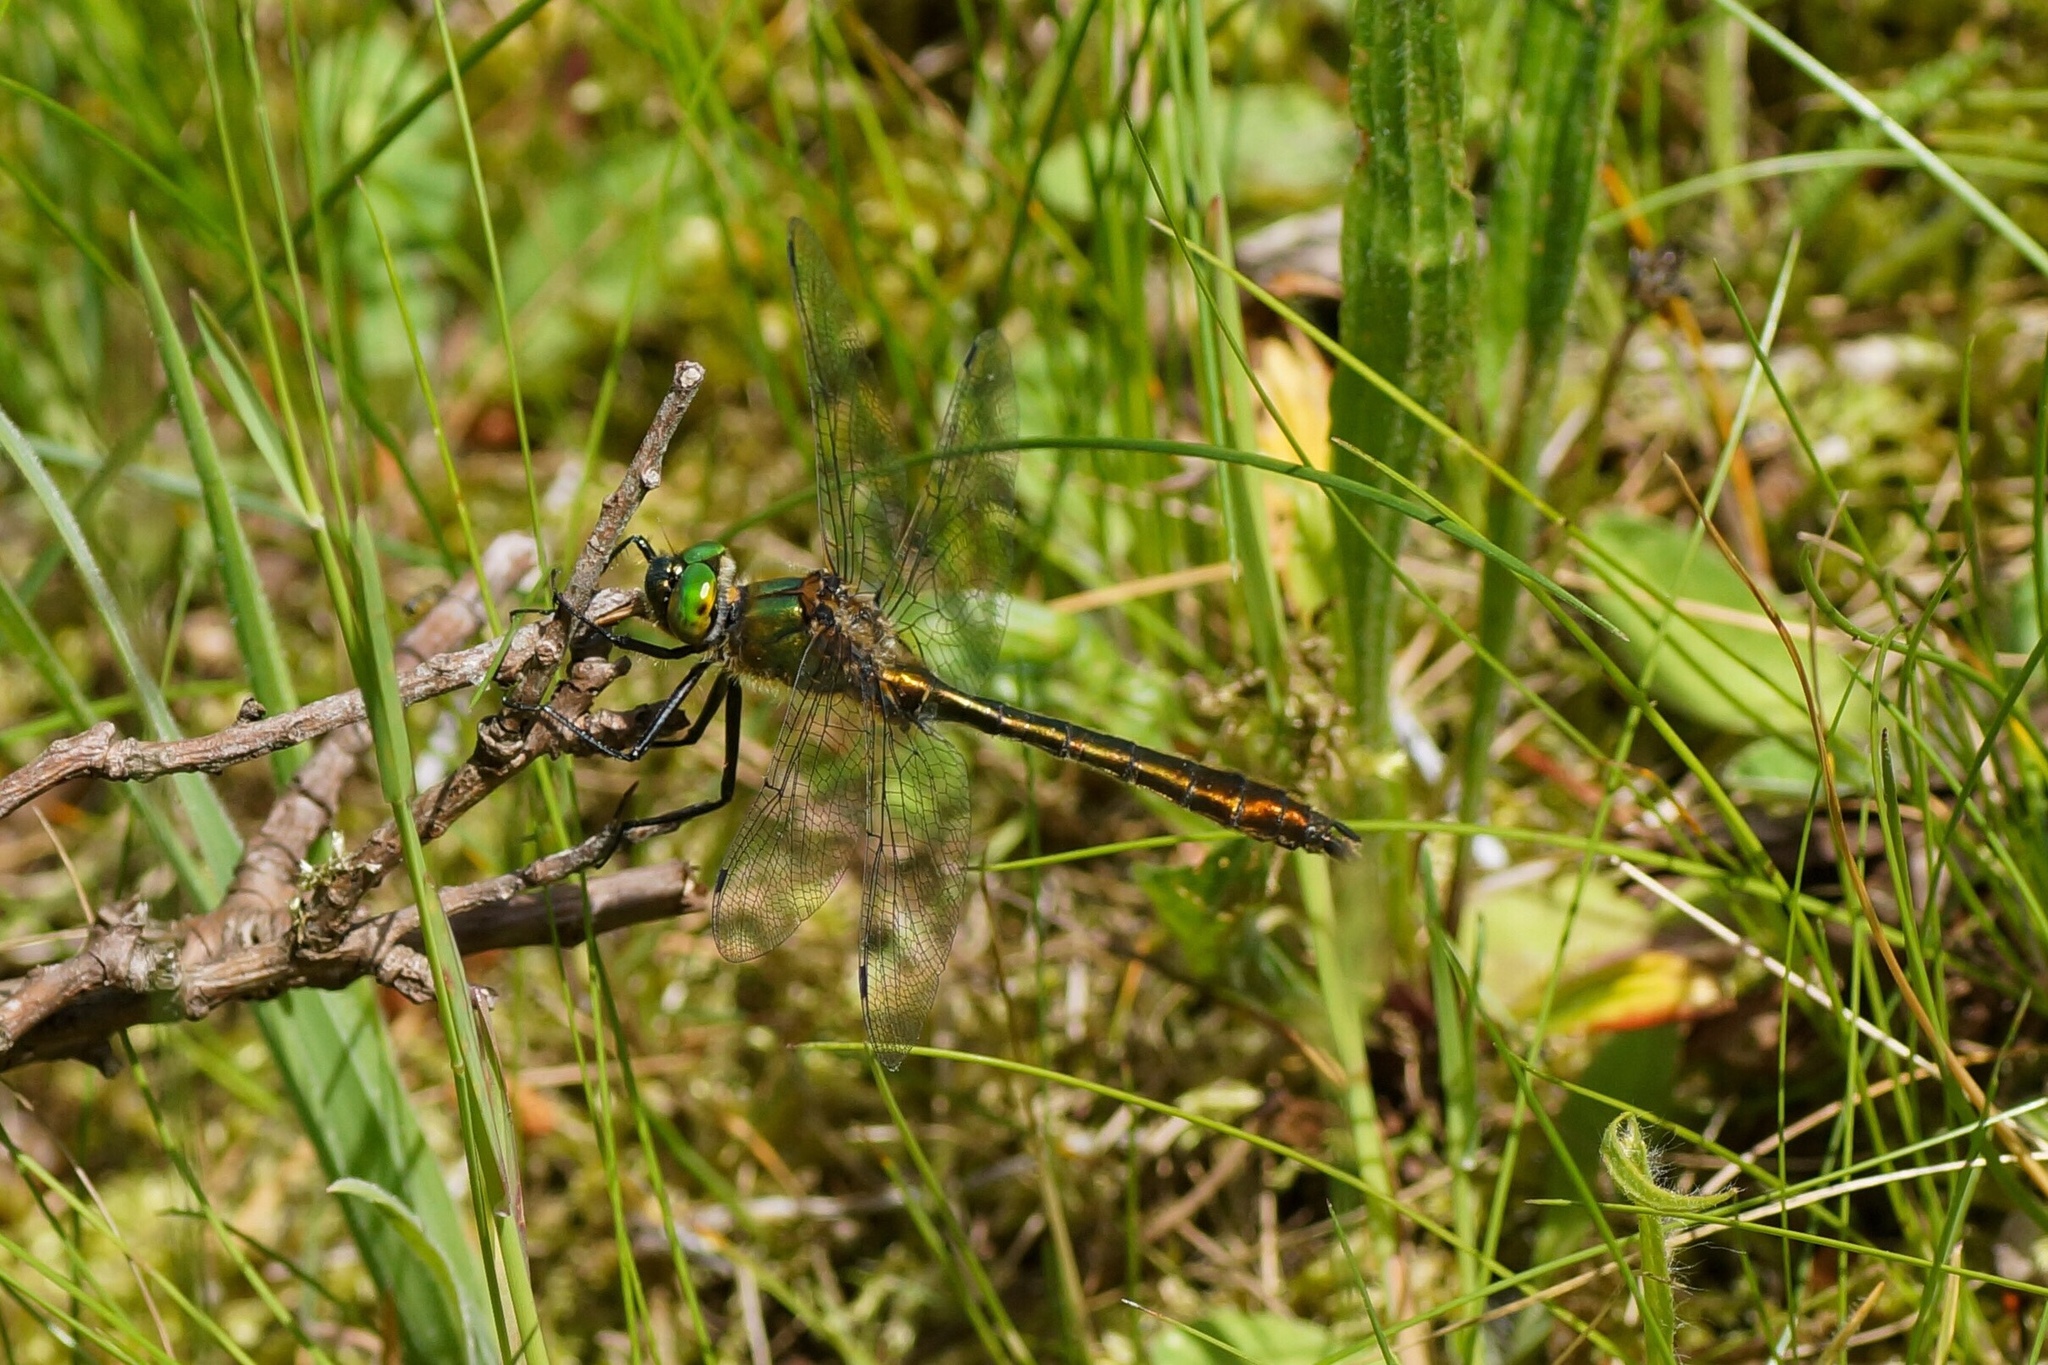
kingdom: Animalia
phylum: Arthropoda
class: Insecta
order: Odonata
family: Corduliidae
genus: Cordulia
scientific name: Cordulia aenea
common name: Downy emerald
